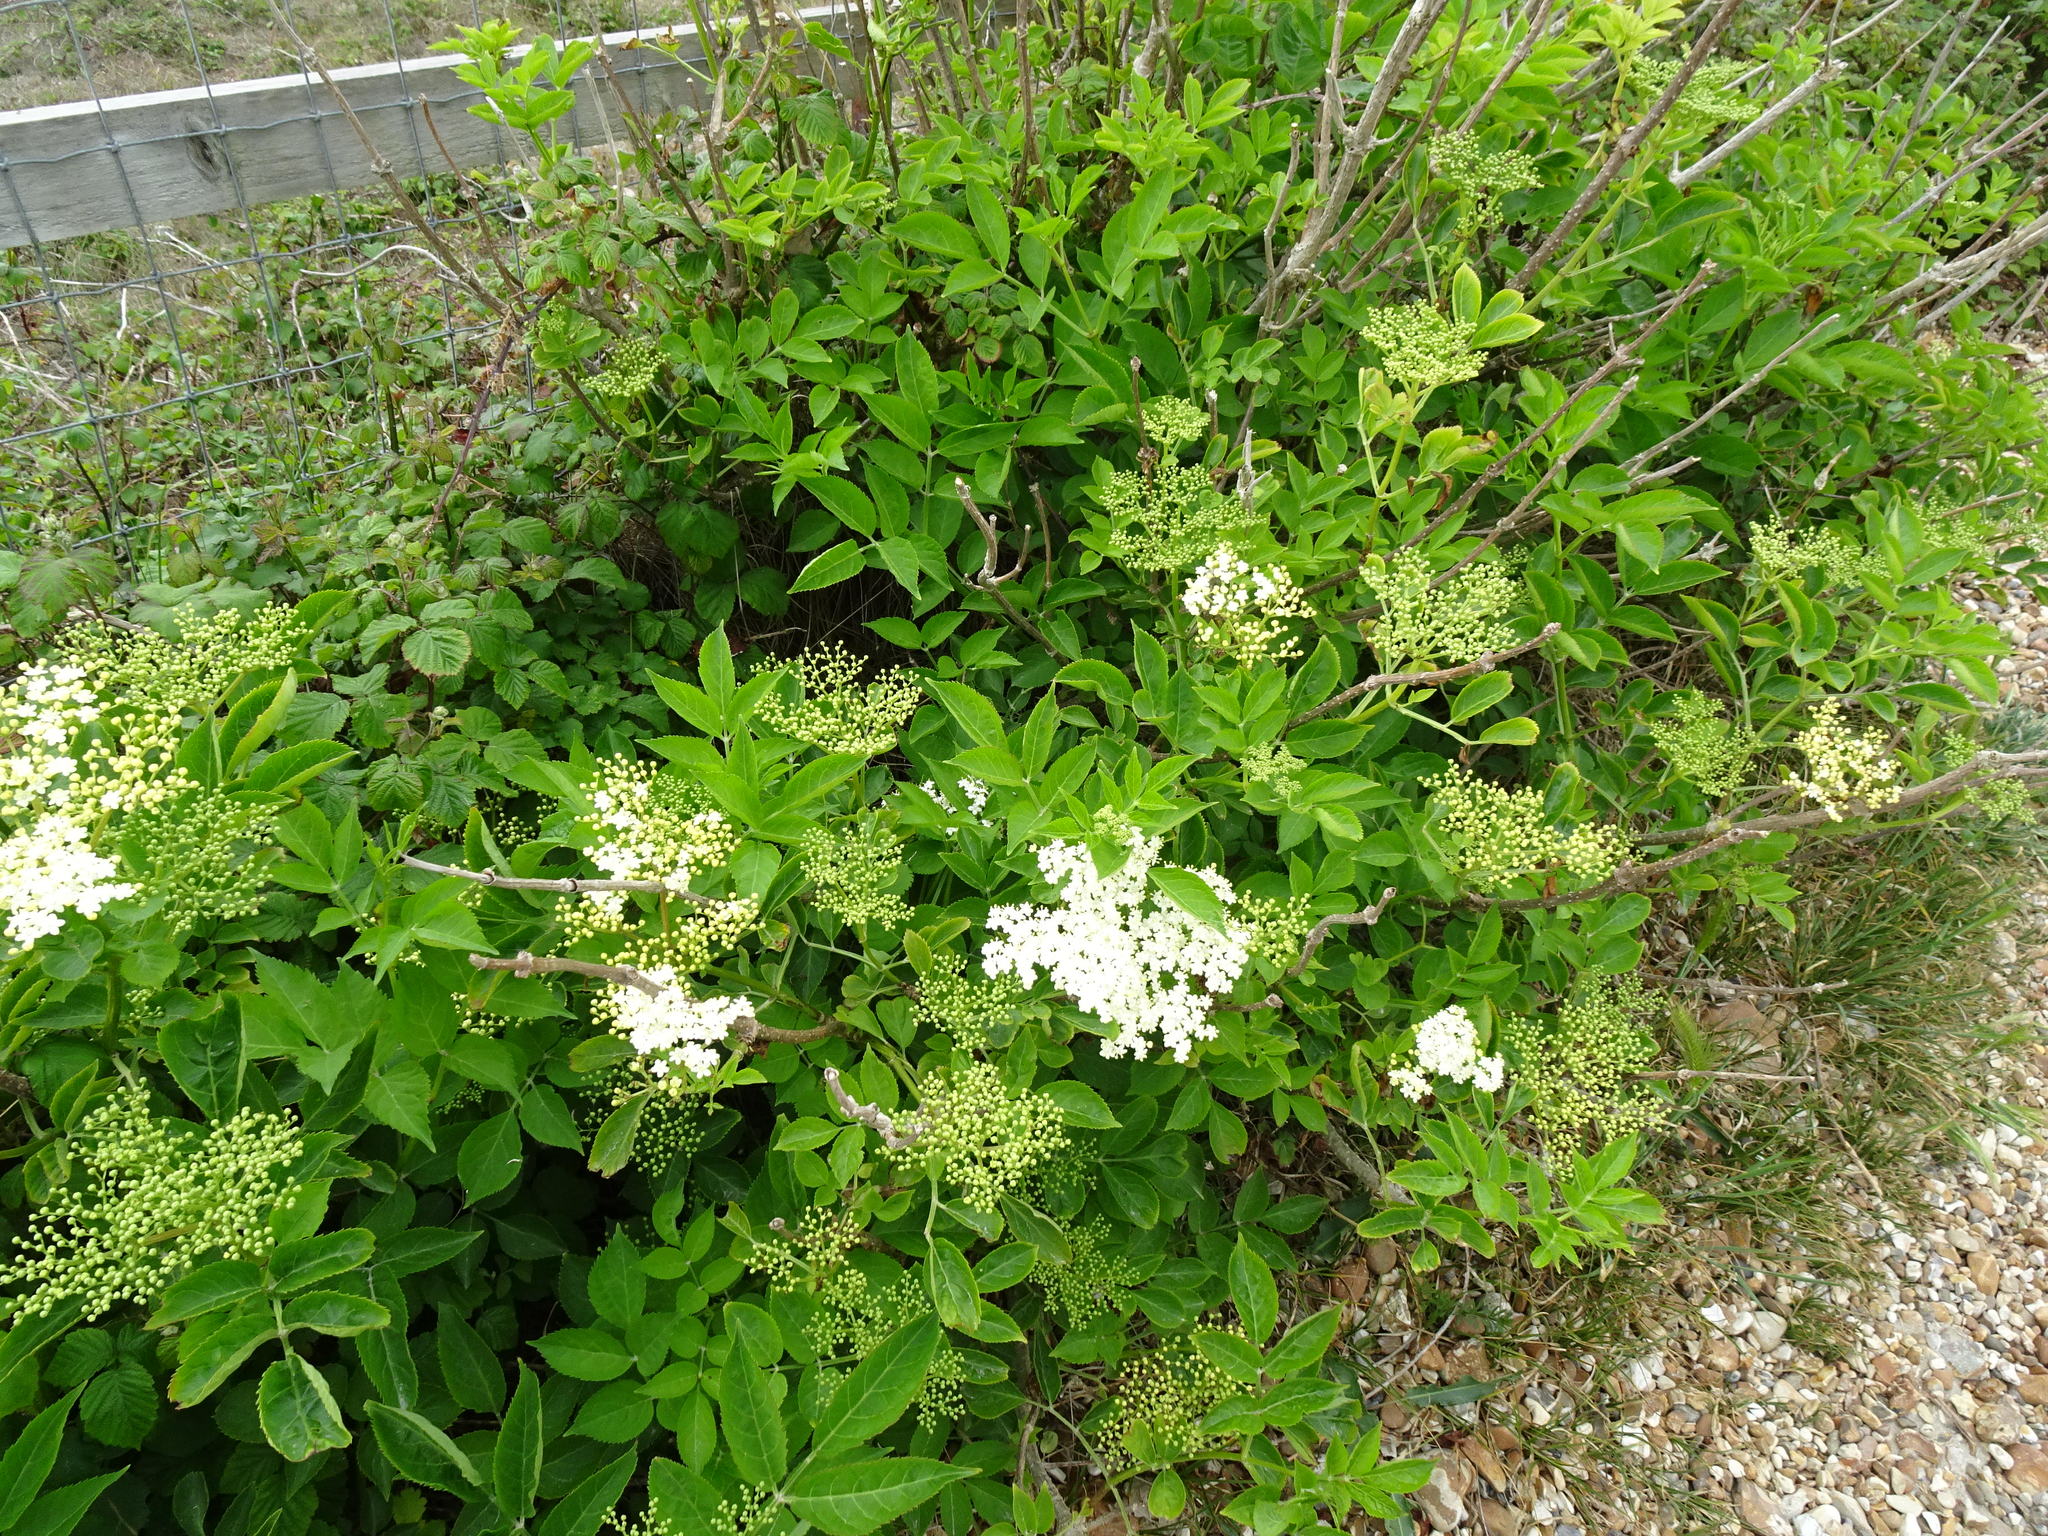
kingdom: Plantae
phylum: Tracheophyta
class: Magnoliopsida
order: Dipsacales
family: Viburnaceae
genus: Sambucus
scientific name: Sambucus nigra
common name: Elder
